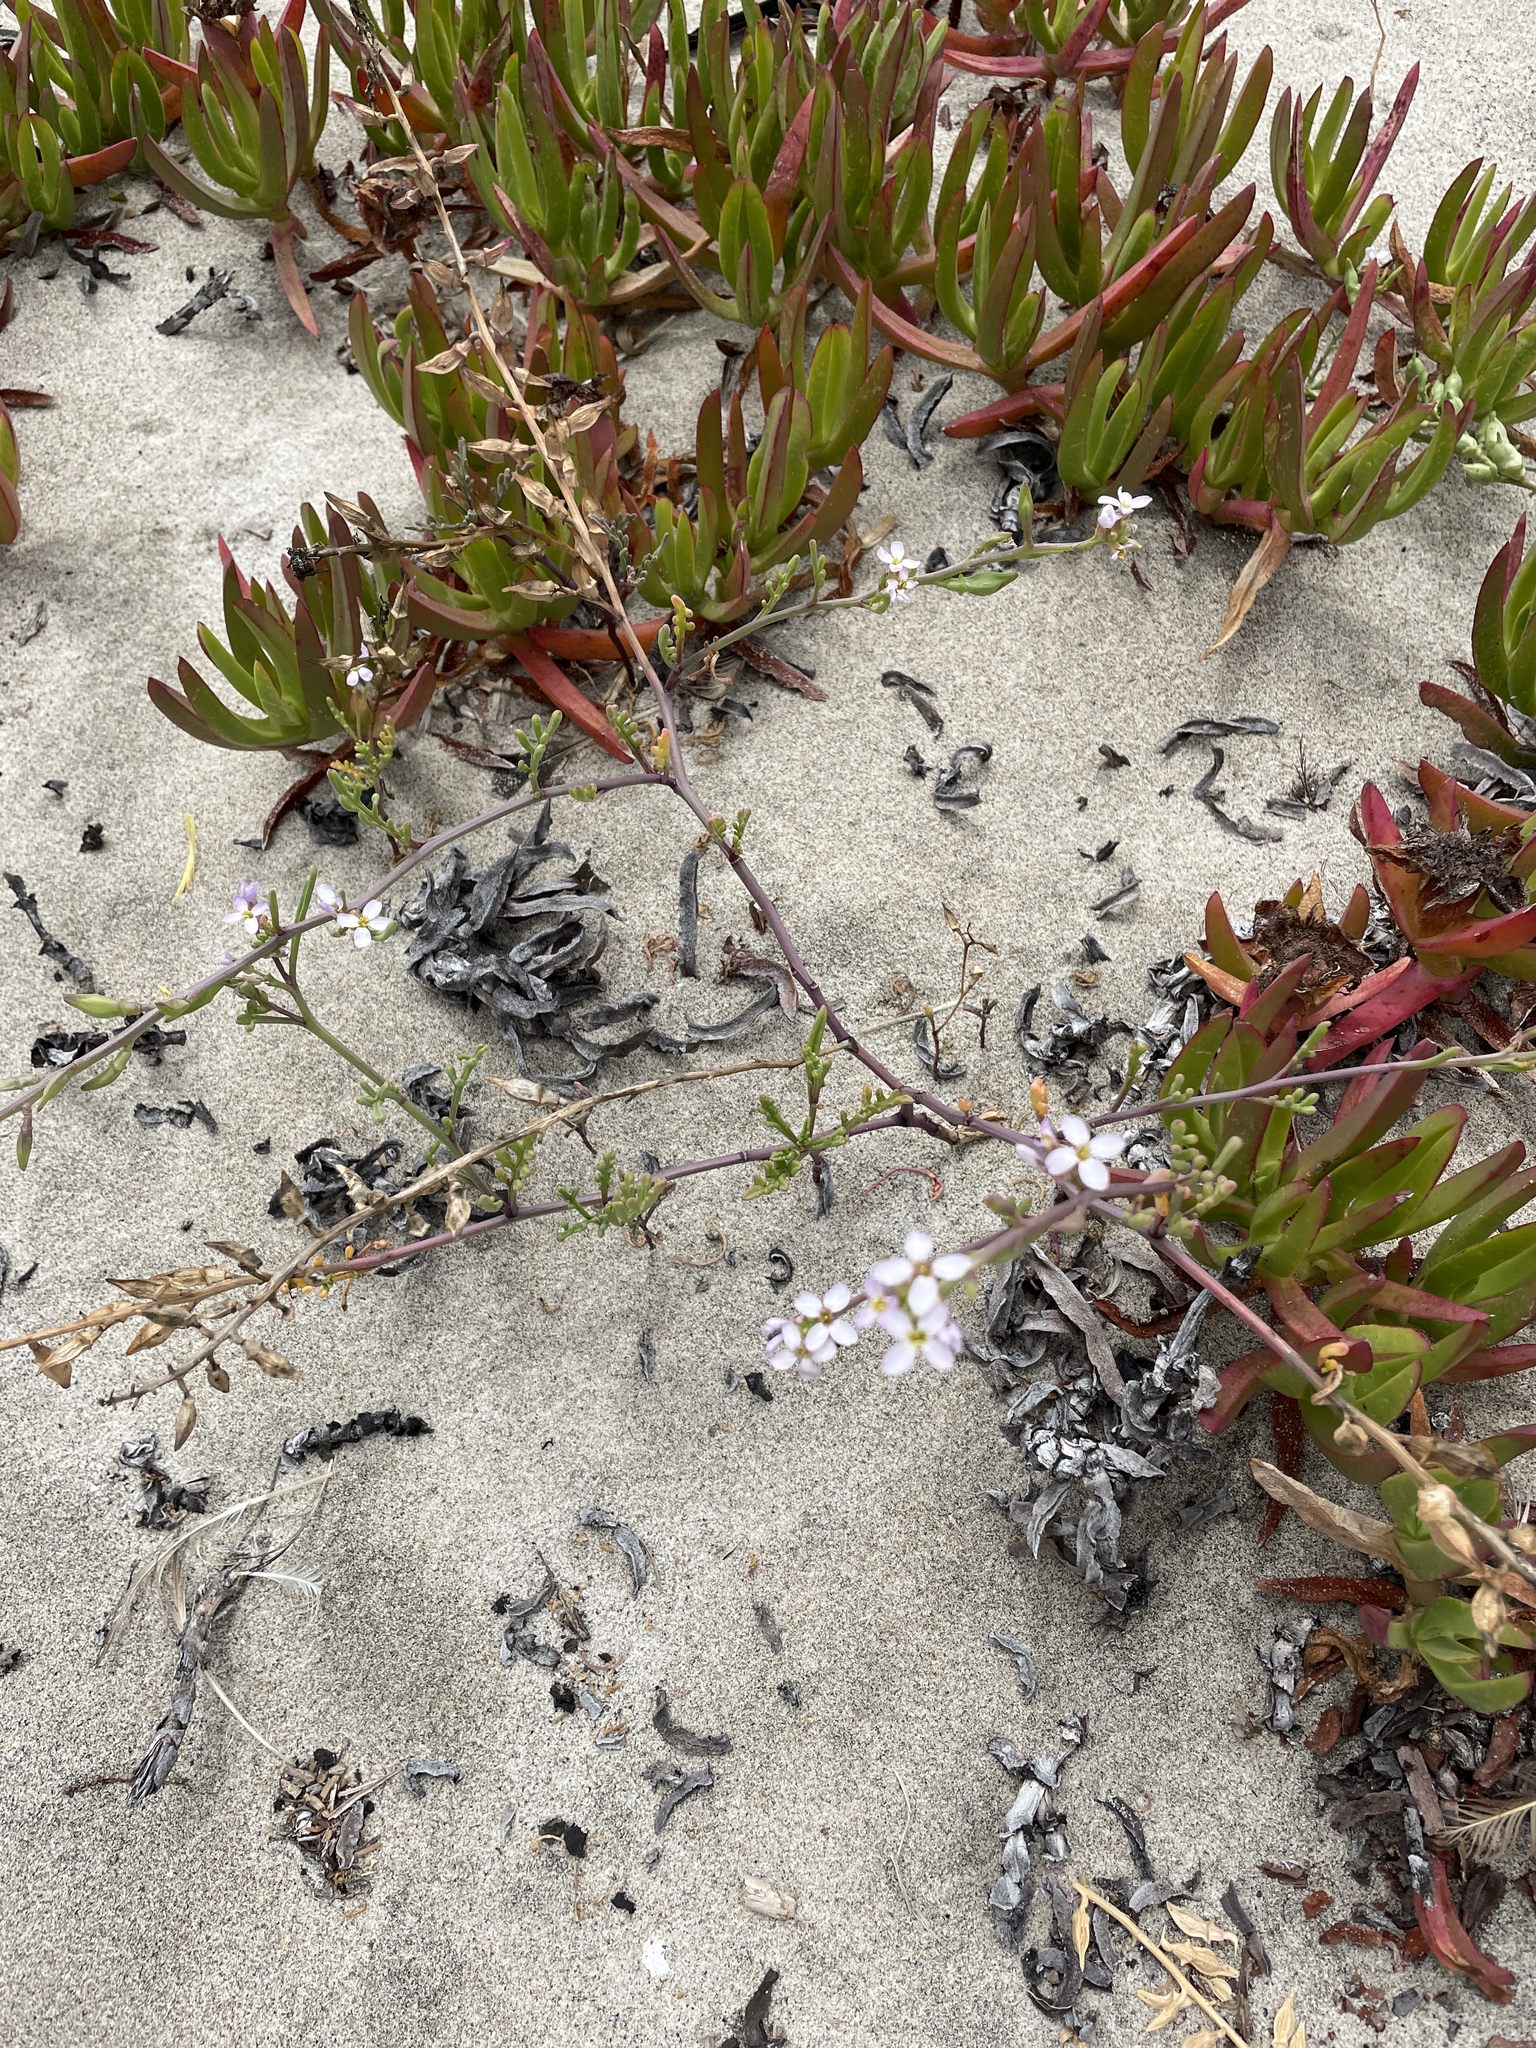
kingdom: Plantae
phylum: Tracheophyta
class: Magnoliopsida
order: Brassicales
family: Brassicaceae
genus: Cakile
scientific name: Cakile maritima
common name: Sea rocket
